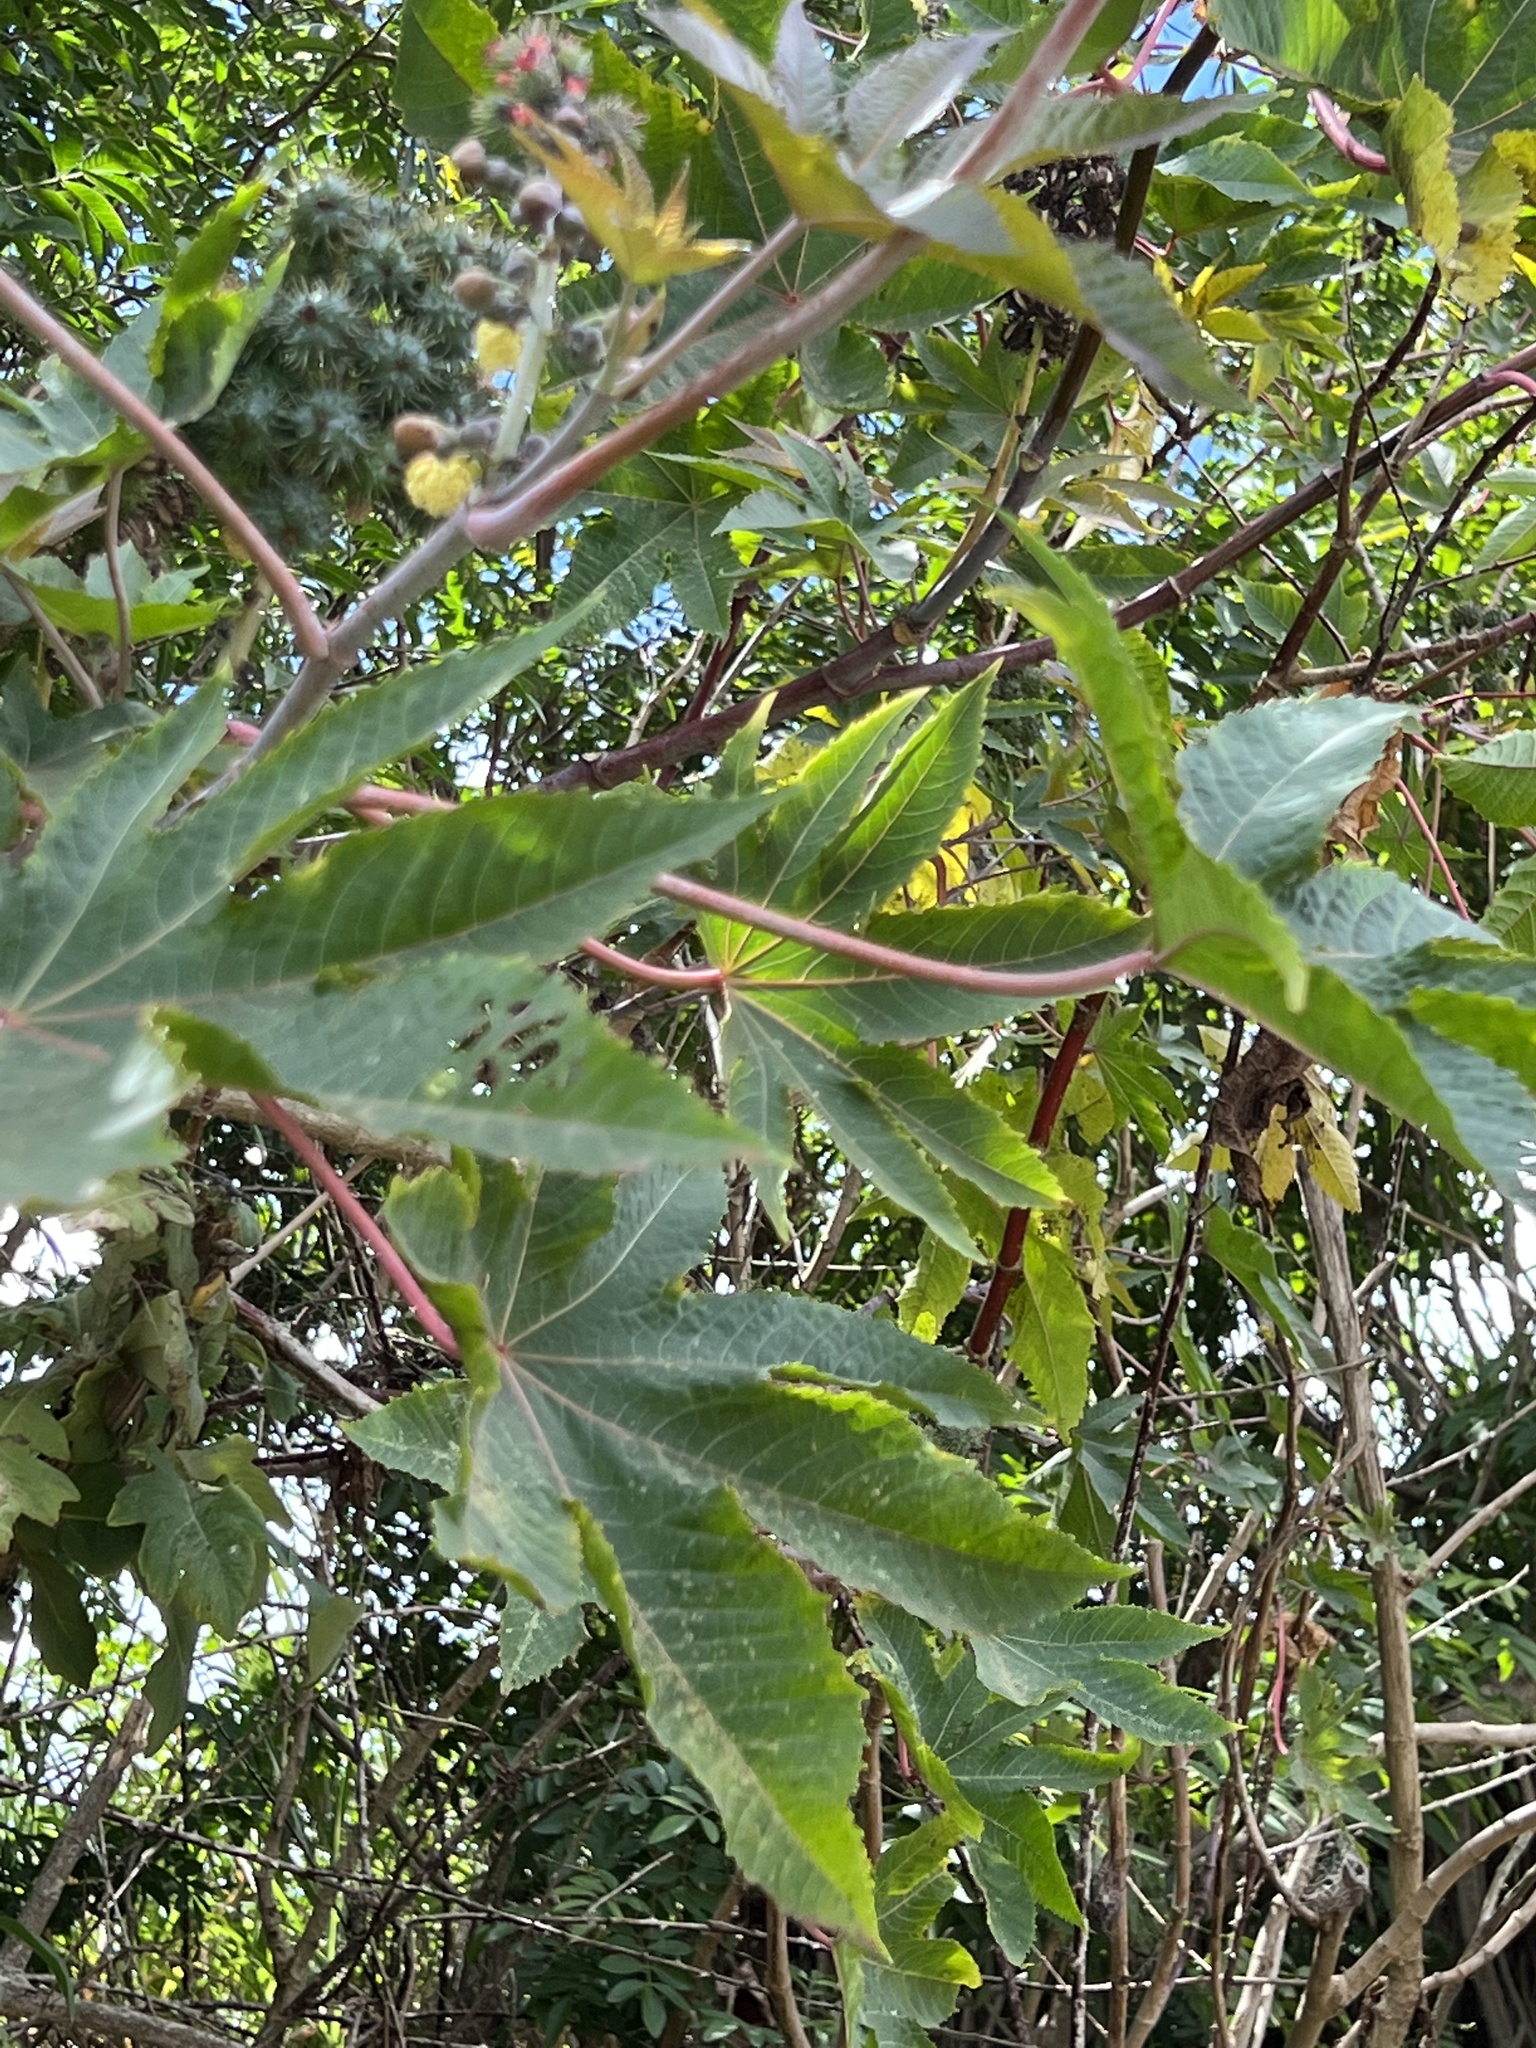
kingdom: Plantae
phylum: Tracheophyta
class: Magnoliopsida
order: Malpighiales
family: Euphorbiaceae
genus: Ricinus
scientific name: Ricinus communis
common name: Castor-oil-plant
